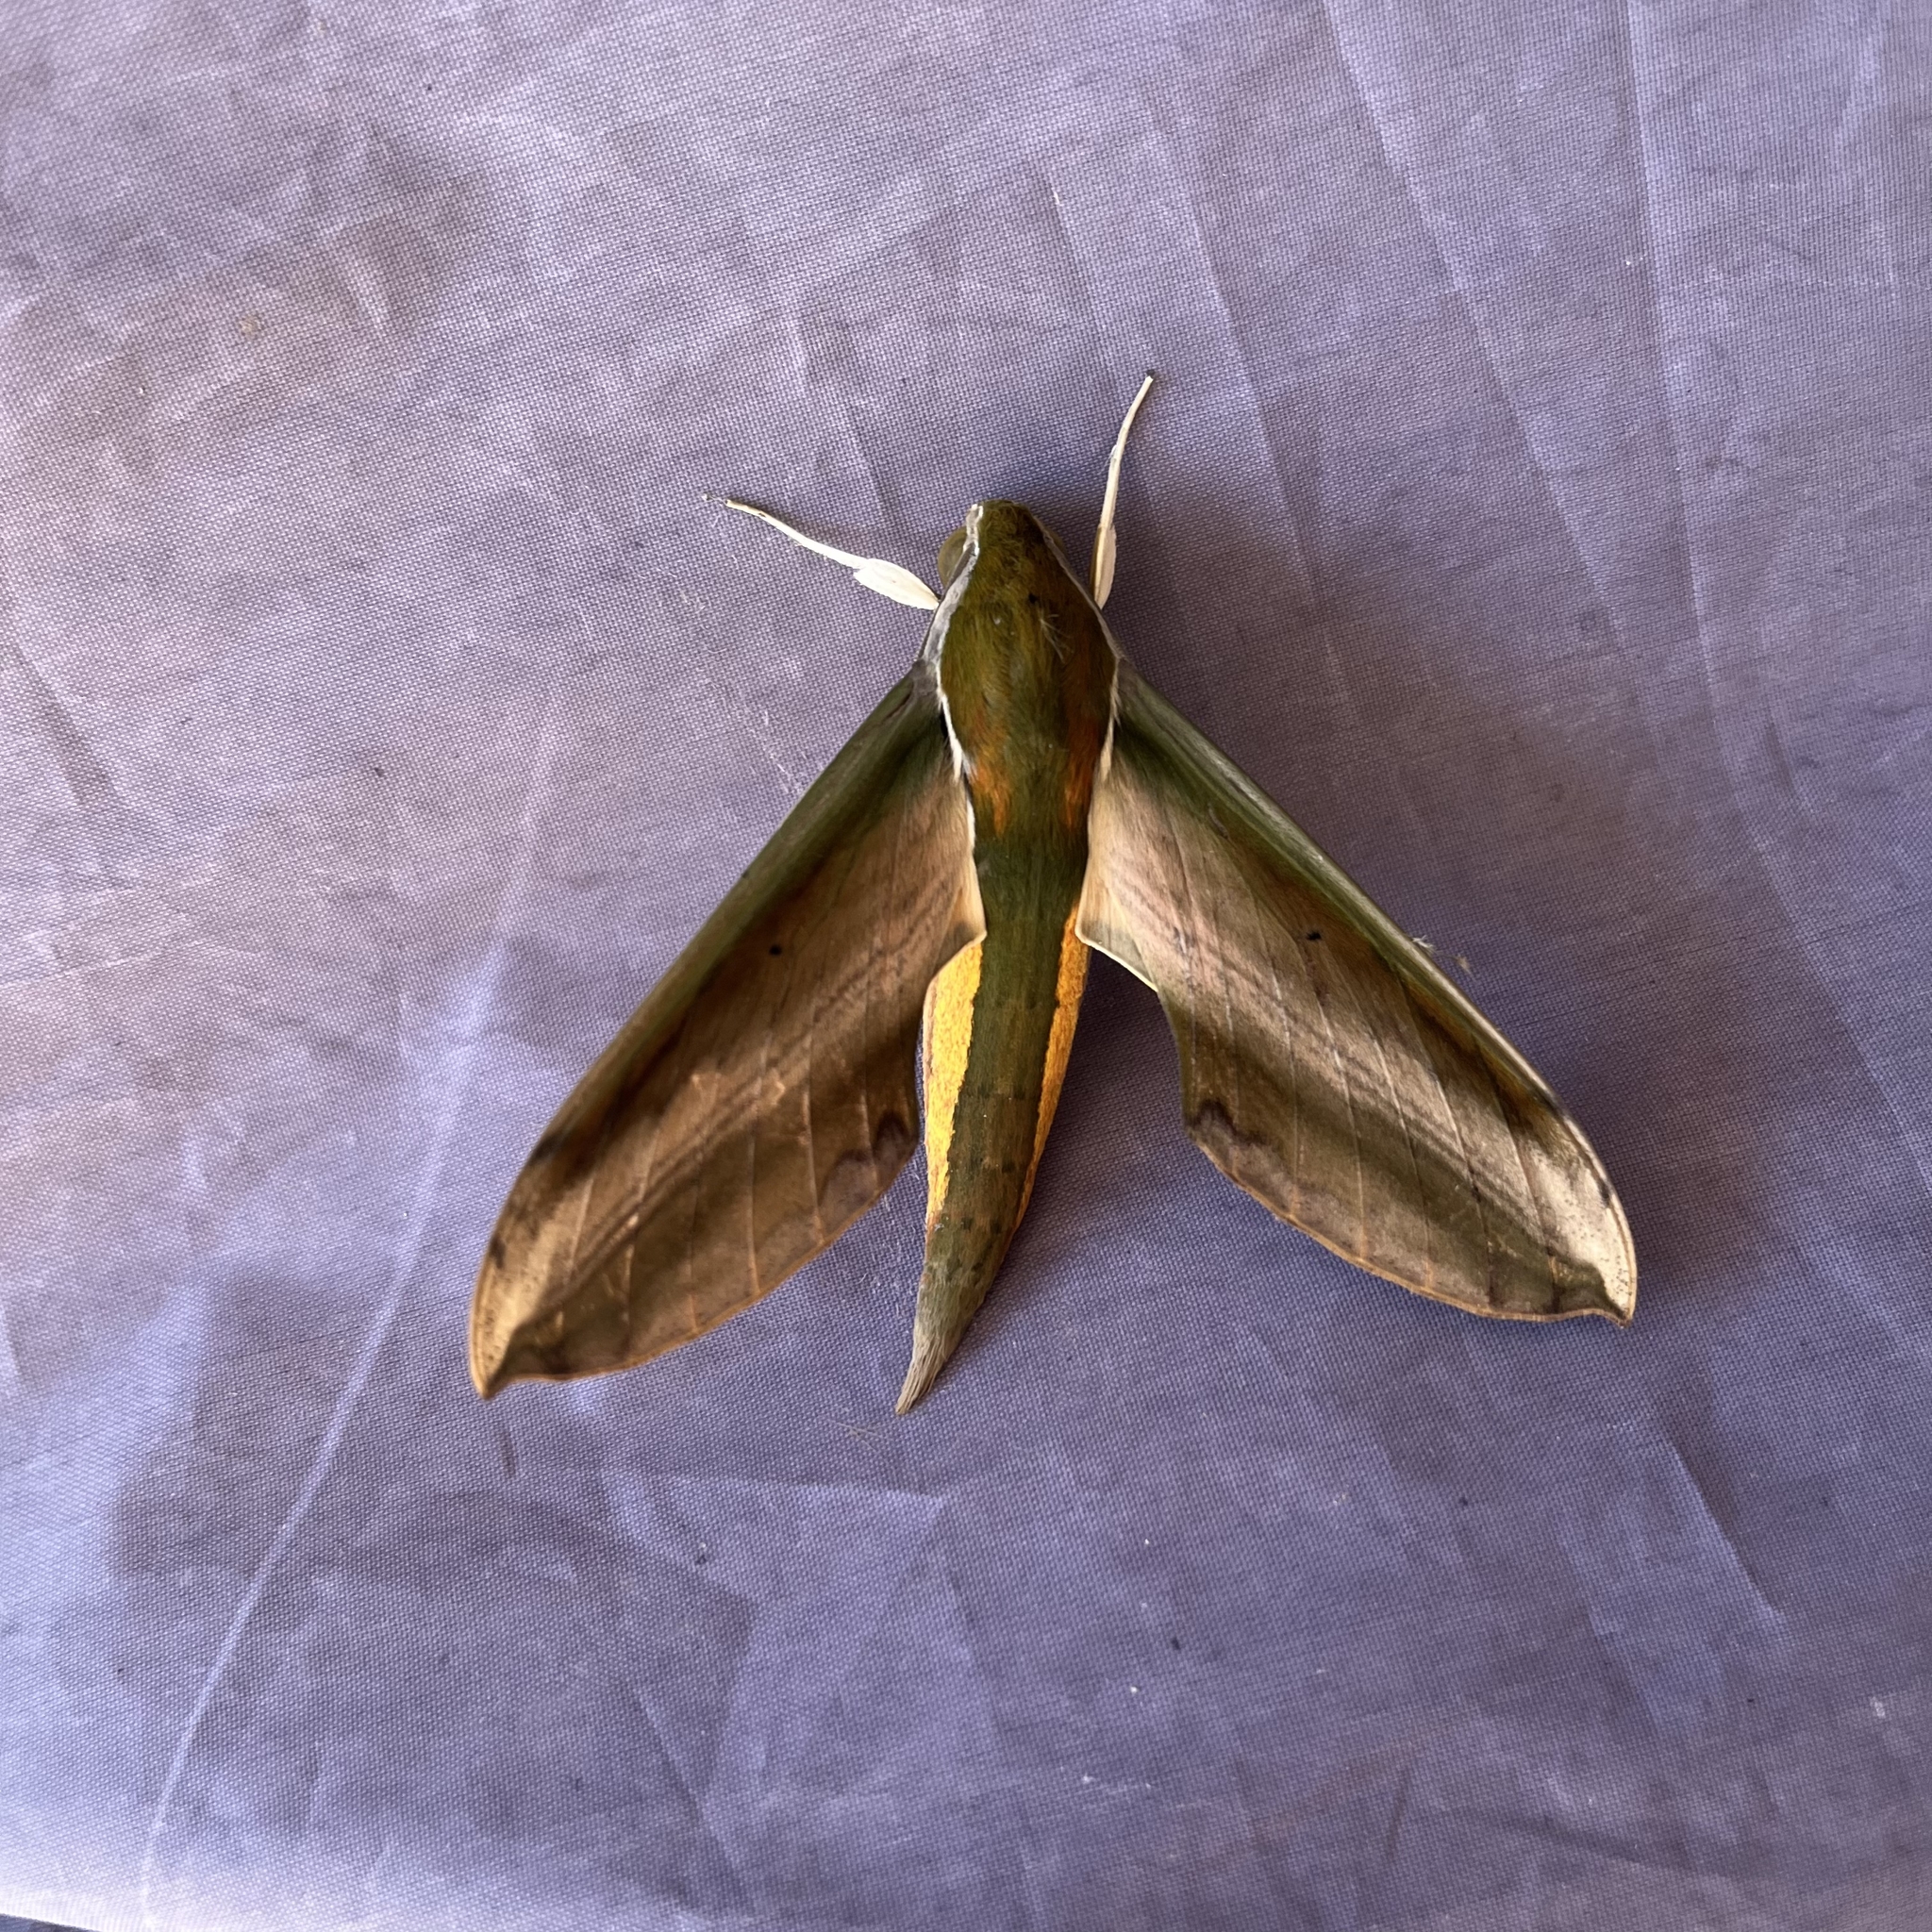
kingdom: Animalia
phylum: Arthropoda
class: Insecta
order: Lepidoptera
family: Sphingidae
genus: Theretra
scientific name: Theretra nessus
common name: Yam hawk moth
